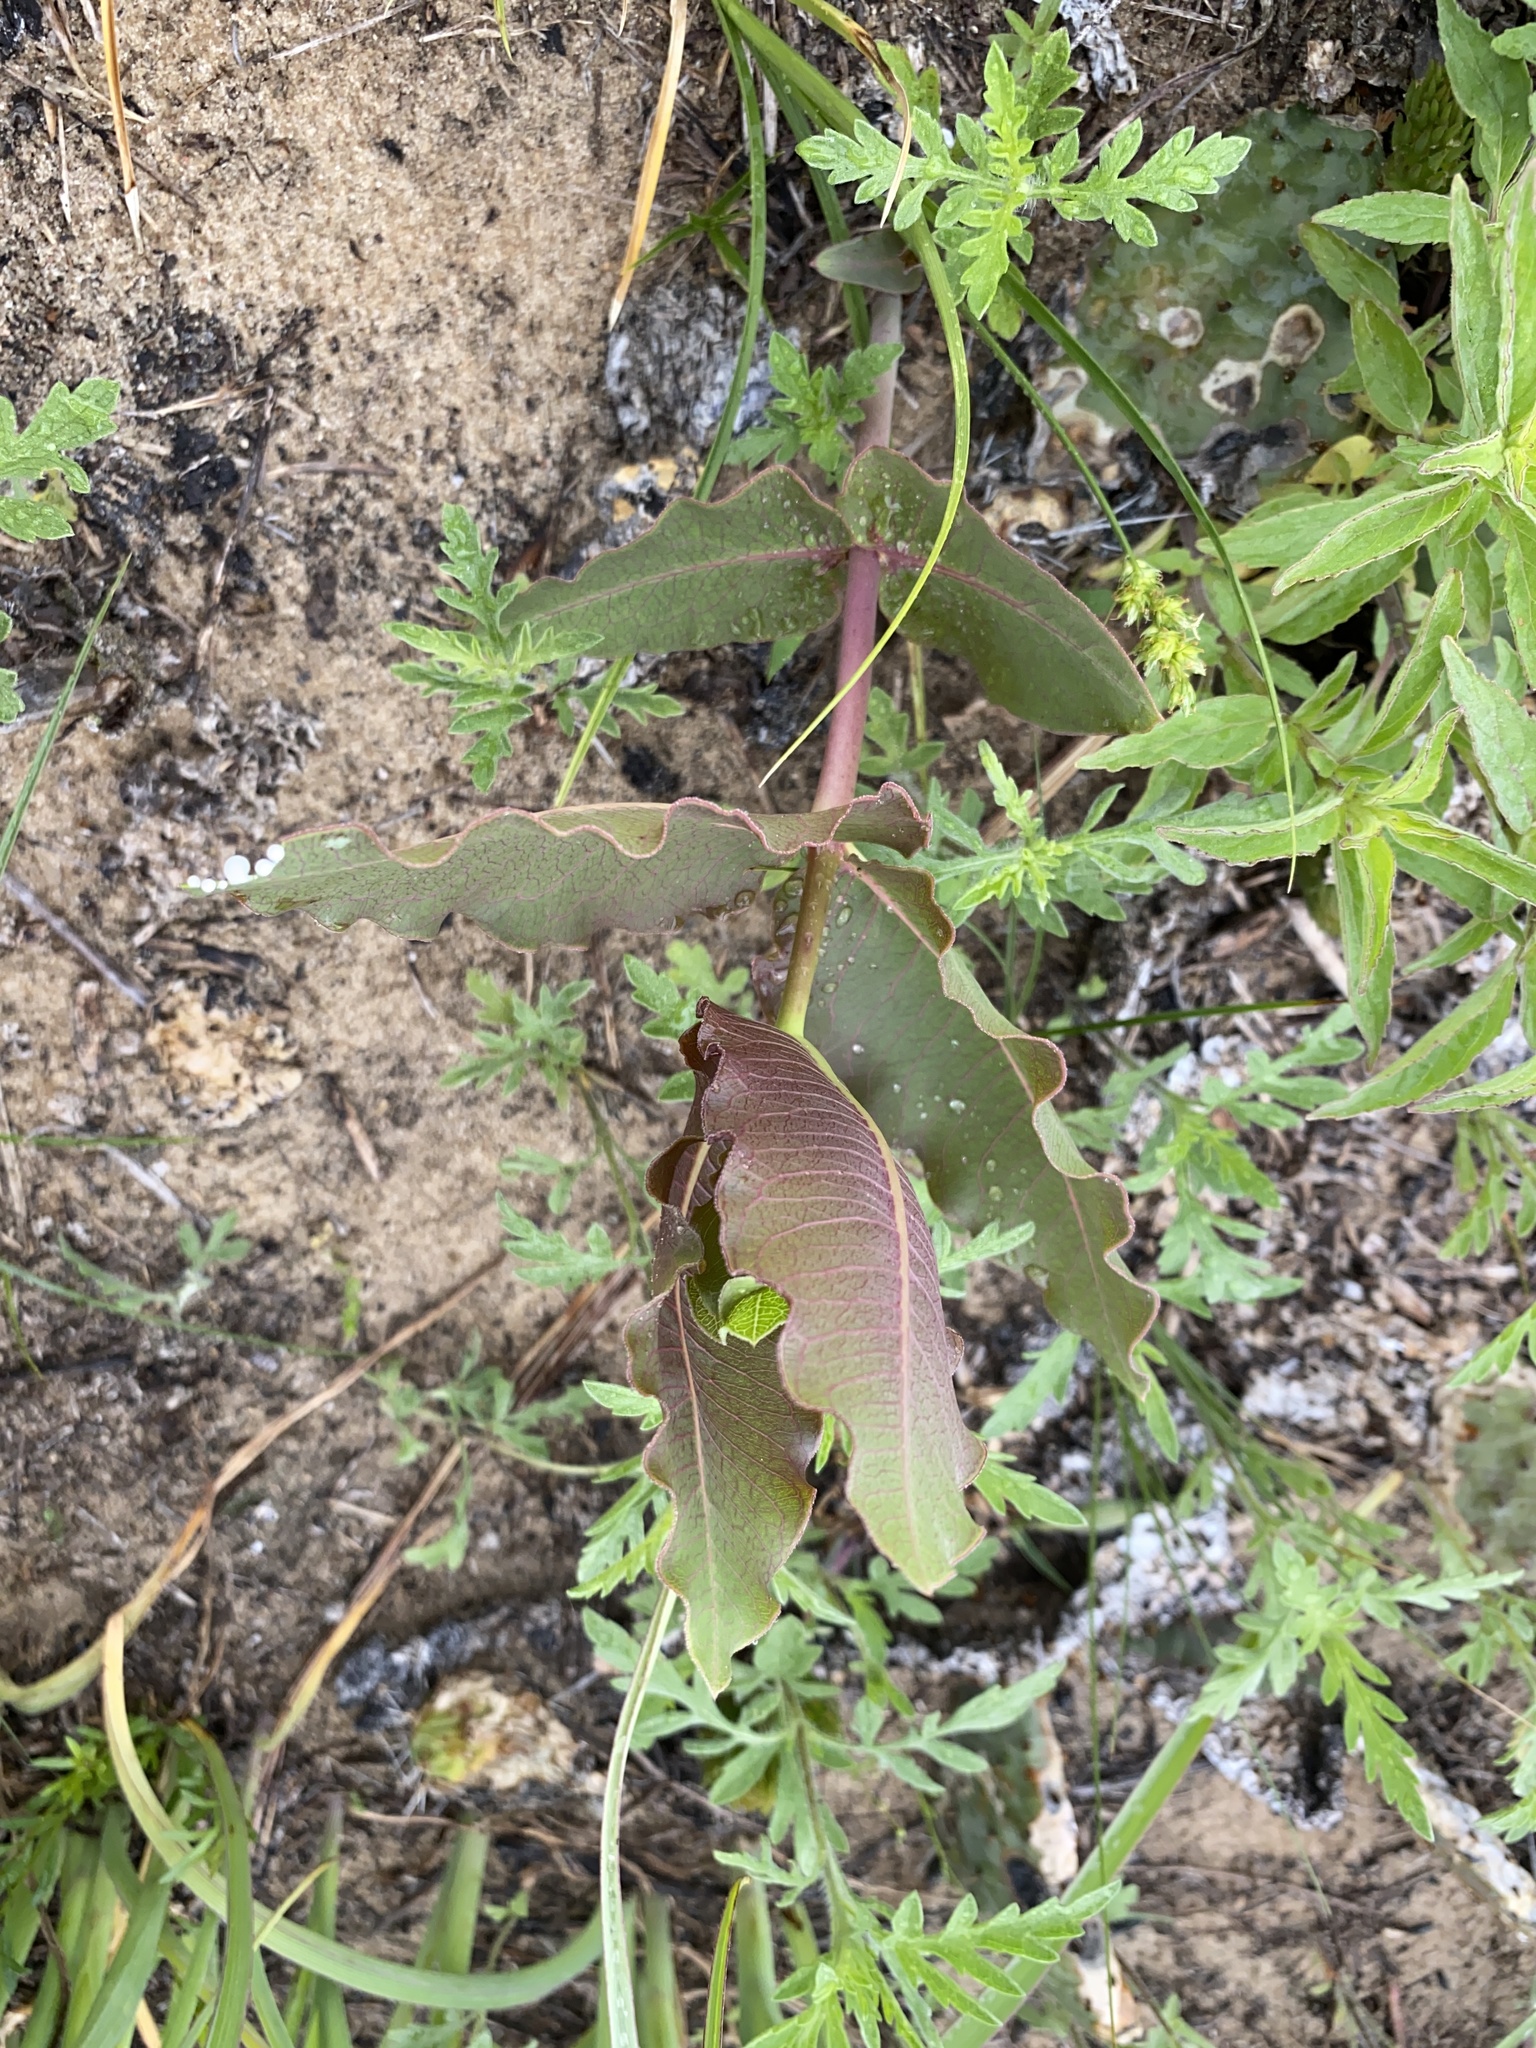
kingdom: Plantae
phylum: Tracheophyta
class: Magnoliopsida
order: Gentianales
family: Apocynaceae
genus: Asclepias
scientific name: Asclepias amplexicaulis
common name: Blunt-leaf milkweed
